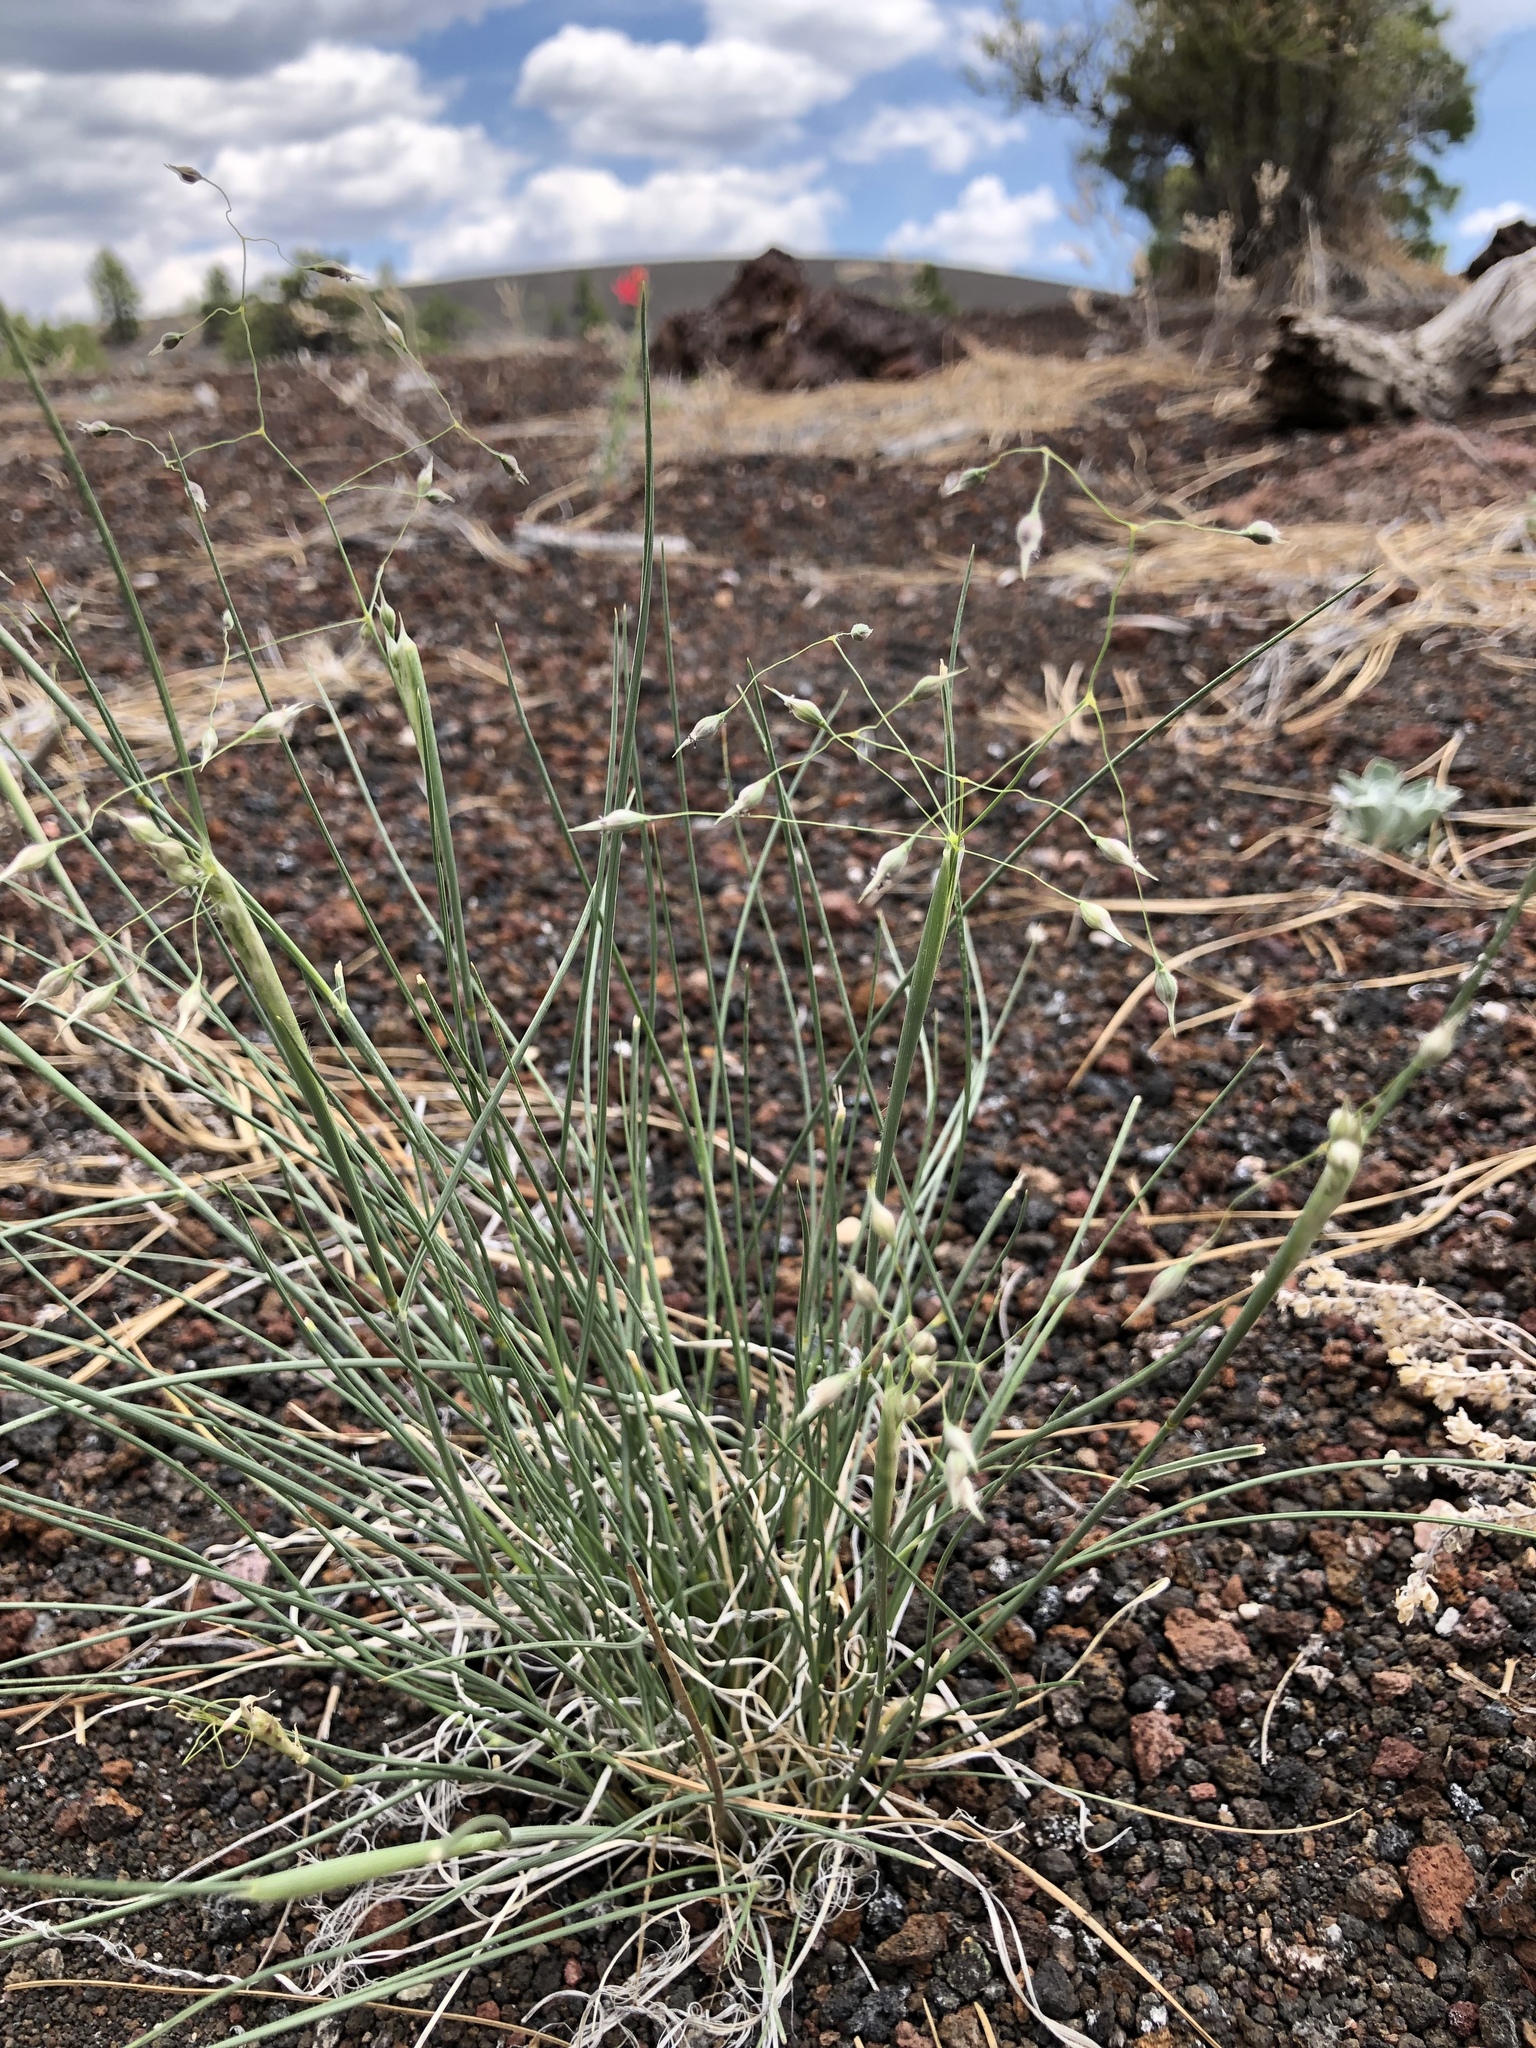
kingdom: Plantae
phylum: Tracheophyta
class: Liliopsida
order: Poales
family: Poaceae
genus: Eriocoma
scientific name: Eriocoma hymenoides
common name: Indian mountain ricegrass
